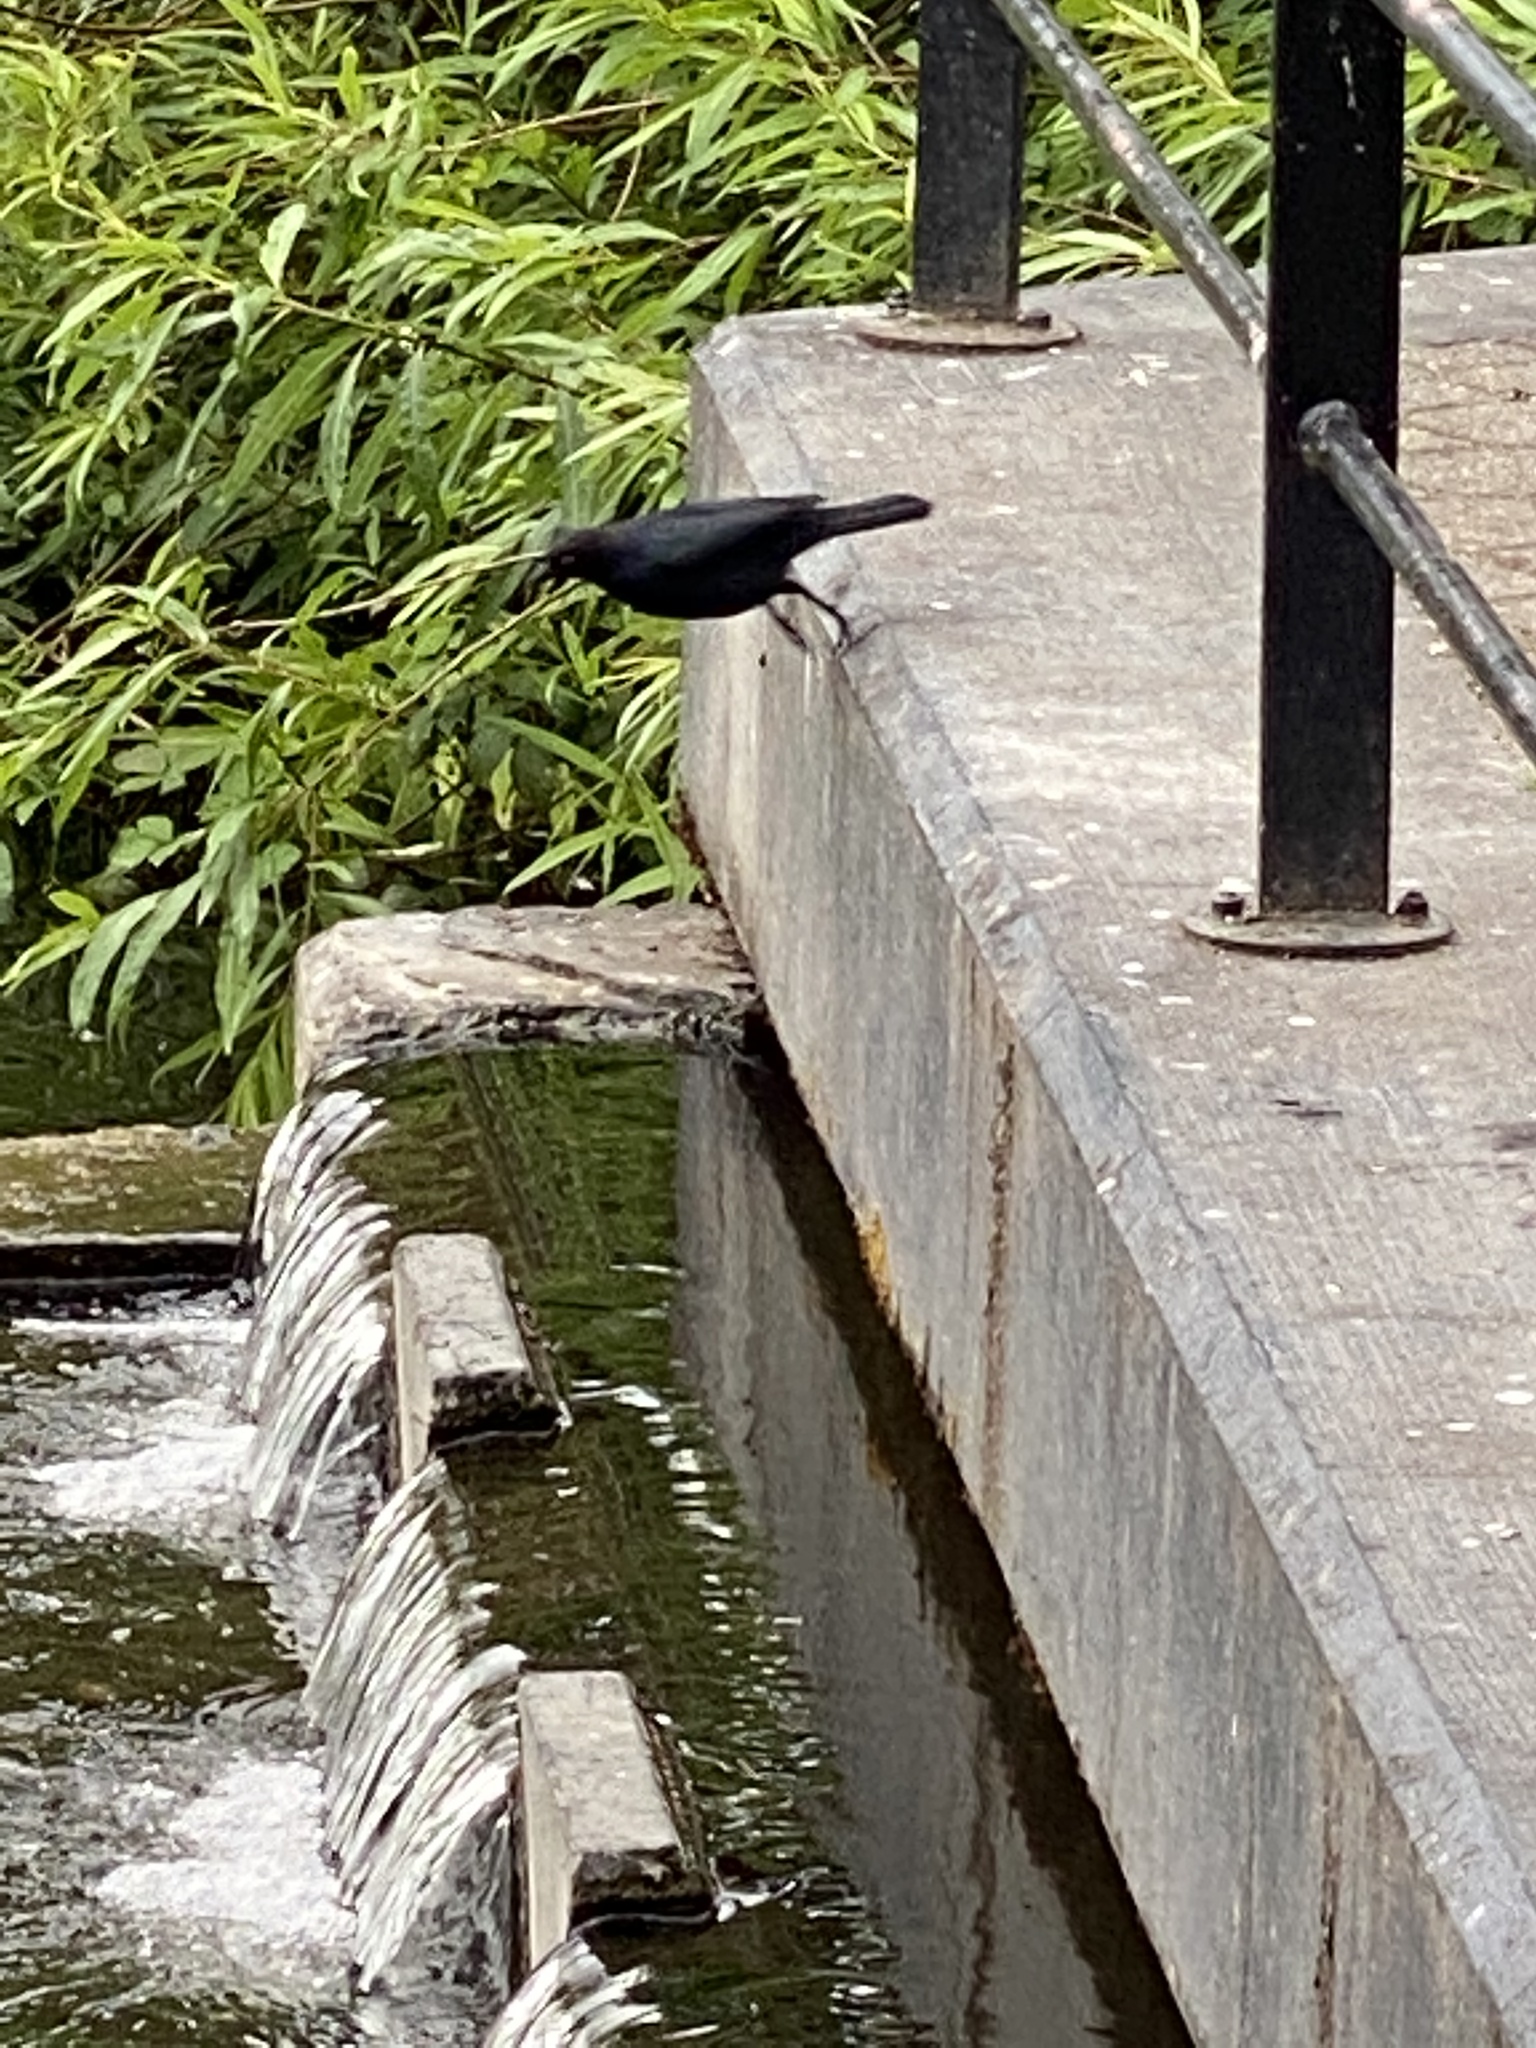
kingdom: Animalia
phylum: Chordata
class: Aves
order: Passeriformes
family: Icteridae
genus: Euphagus
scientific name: Euphagus cyanocephalus
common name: Brewer's blackbird
